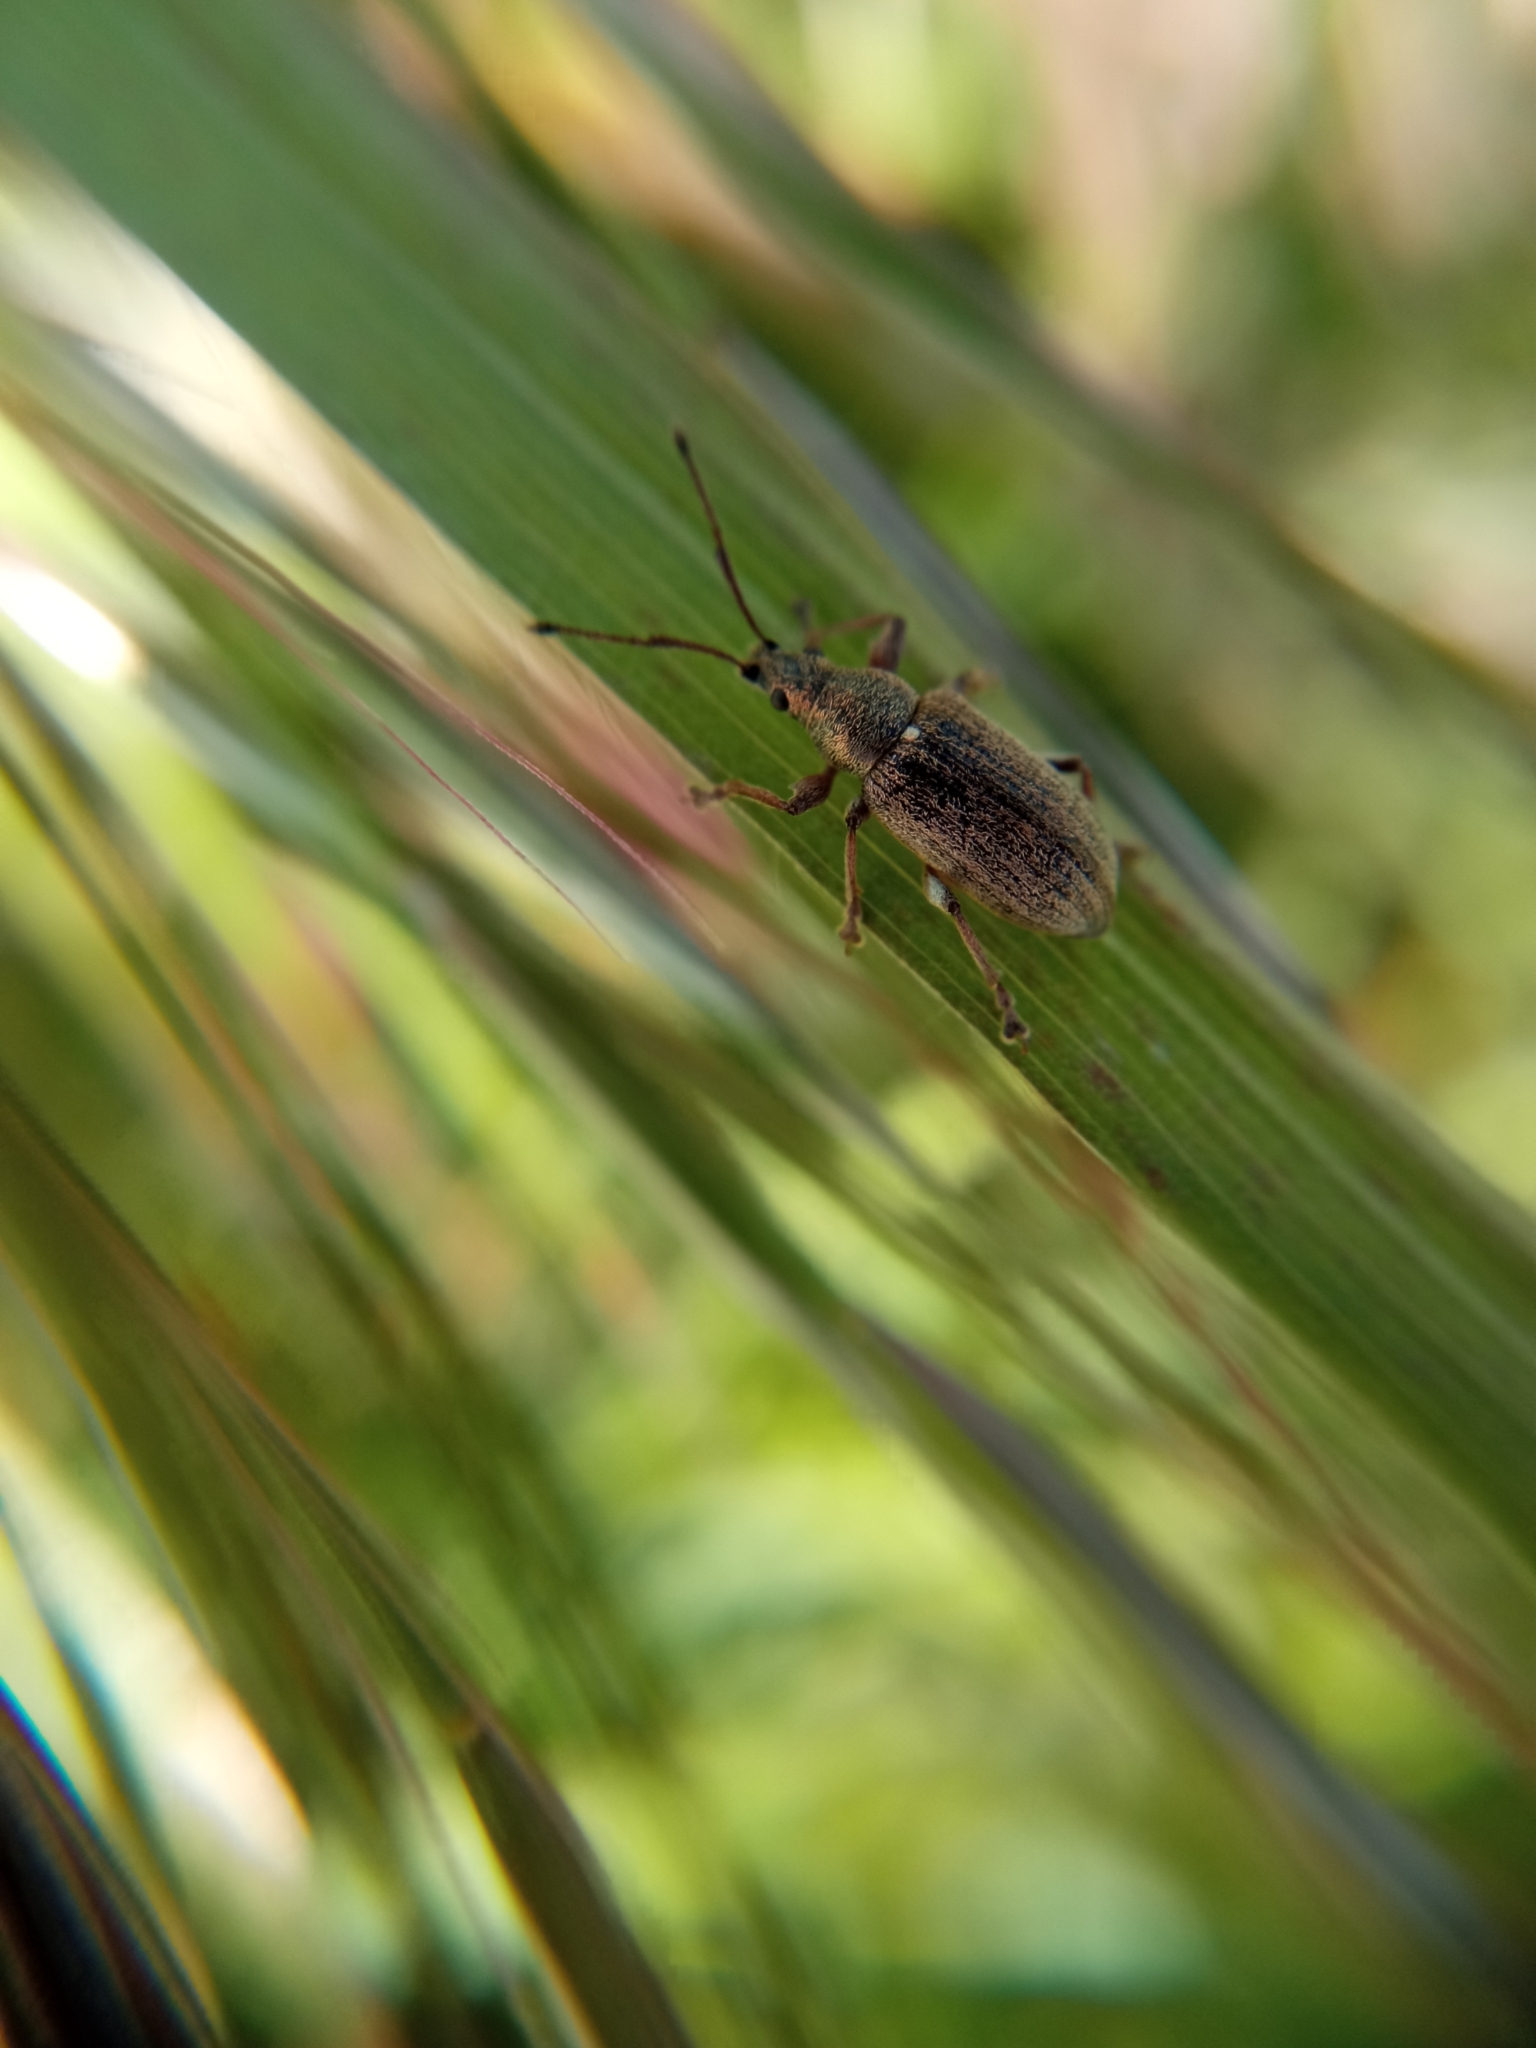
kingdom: Animalia
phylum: Arthropoda
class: Insecta
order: Coleoptera
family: Curculionidae
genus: Phyllobius
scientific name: Phyllobius pyri
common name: Common leaf weevil
